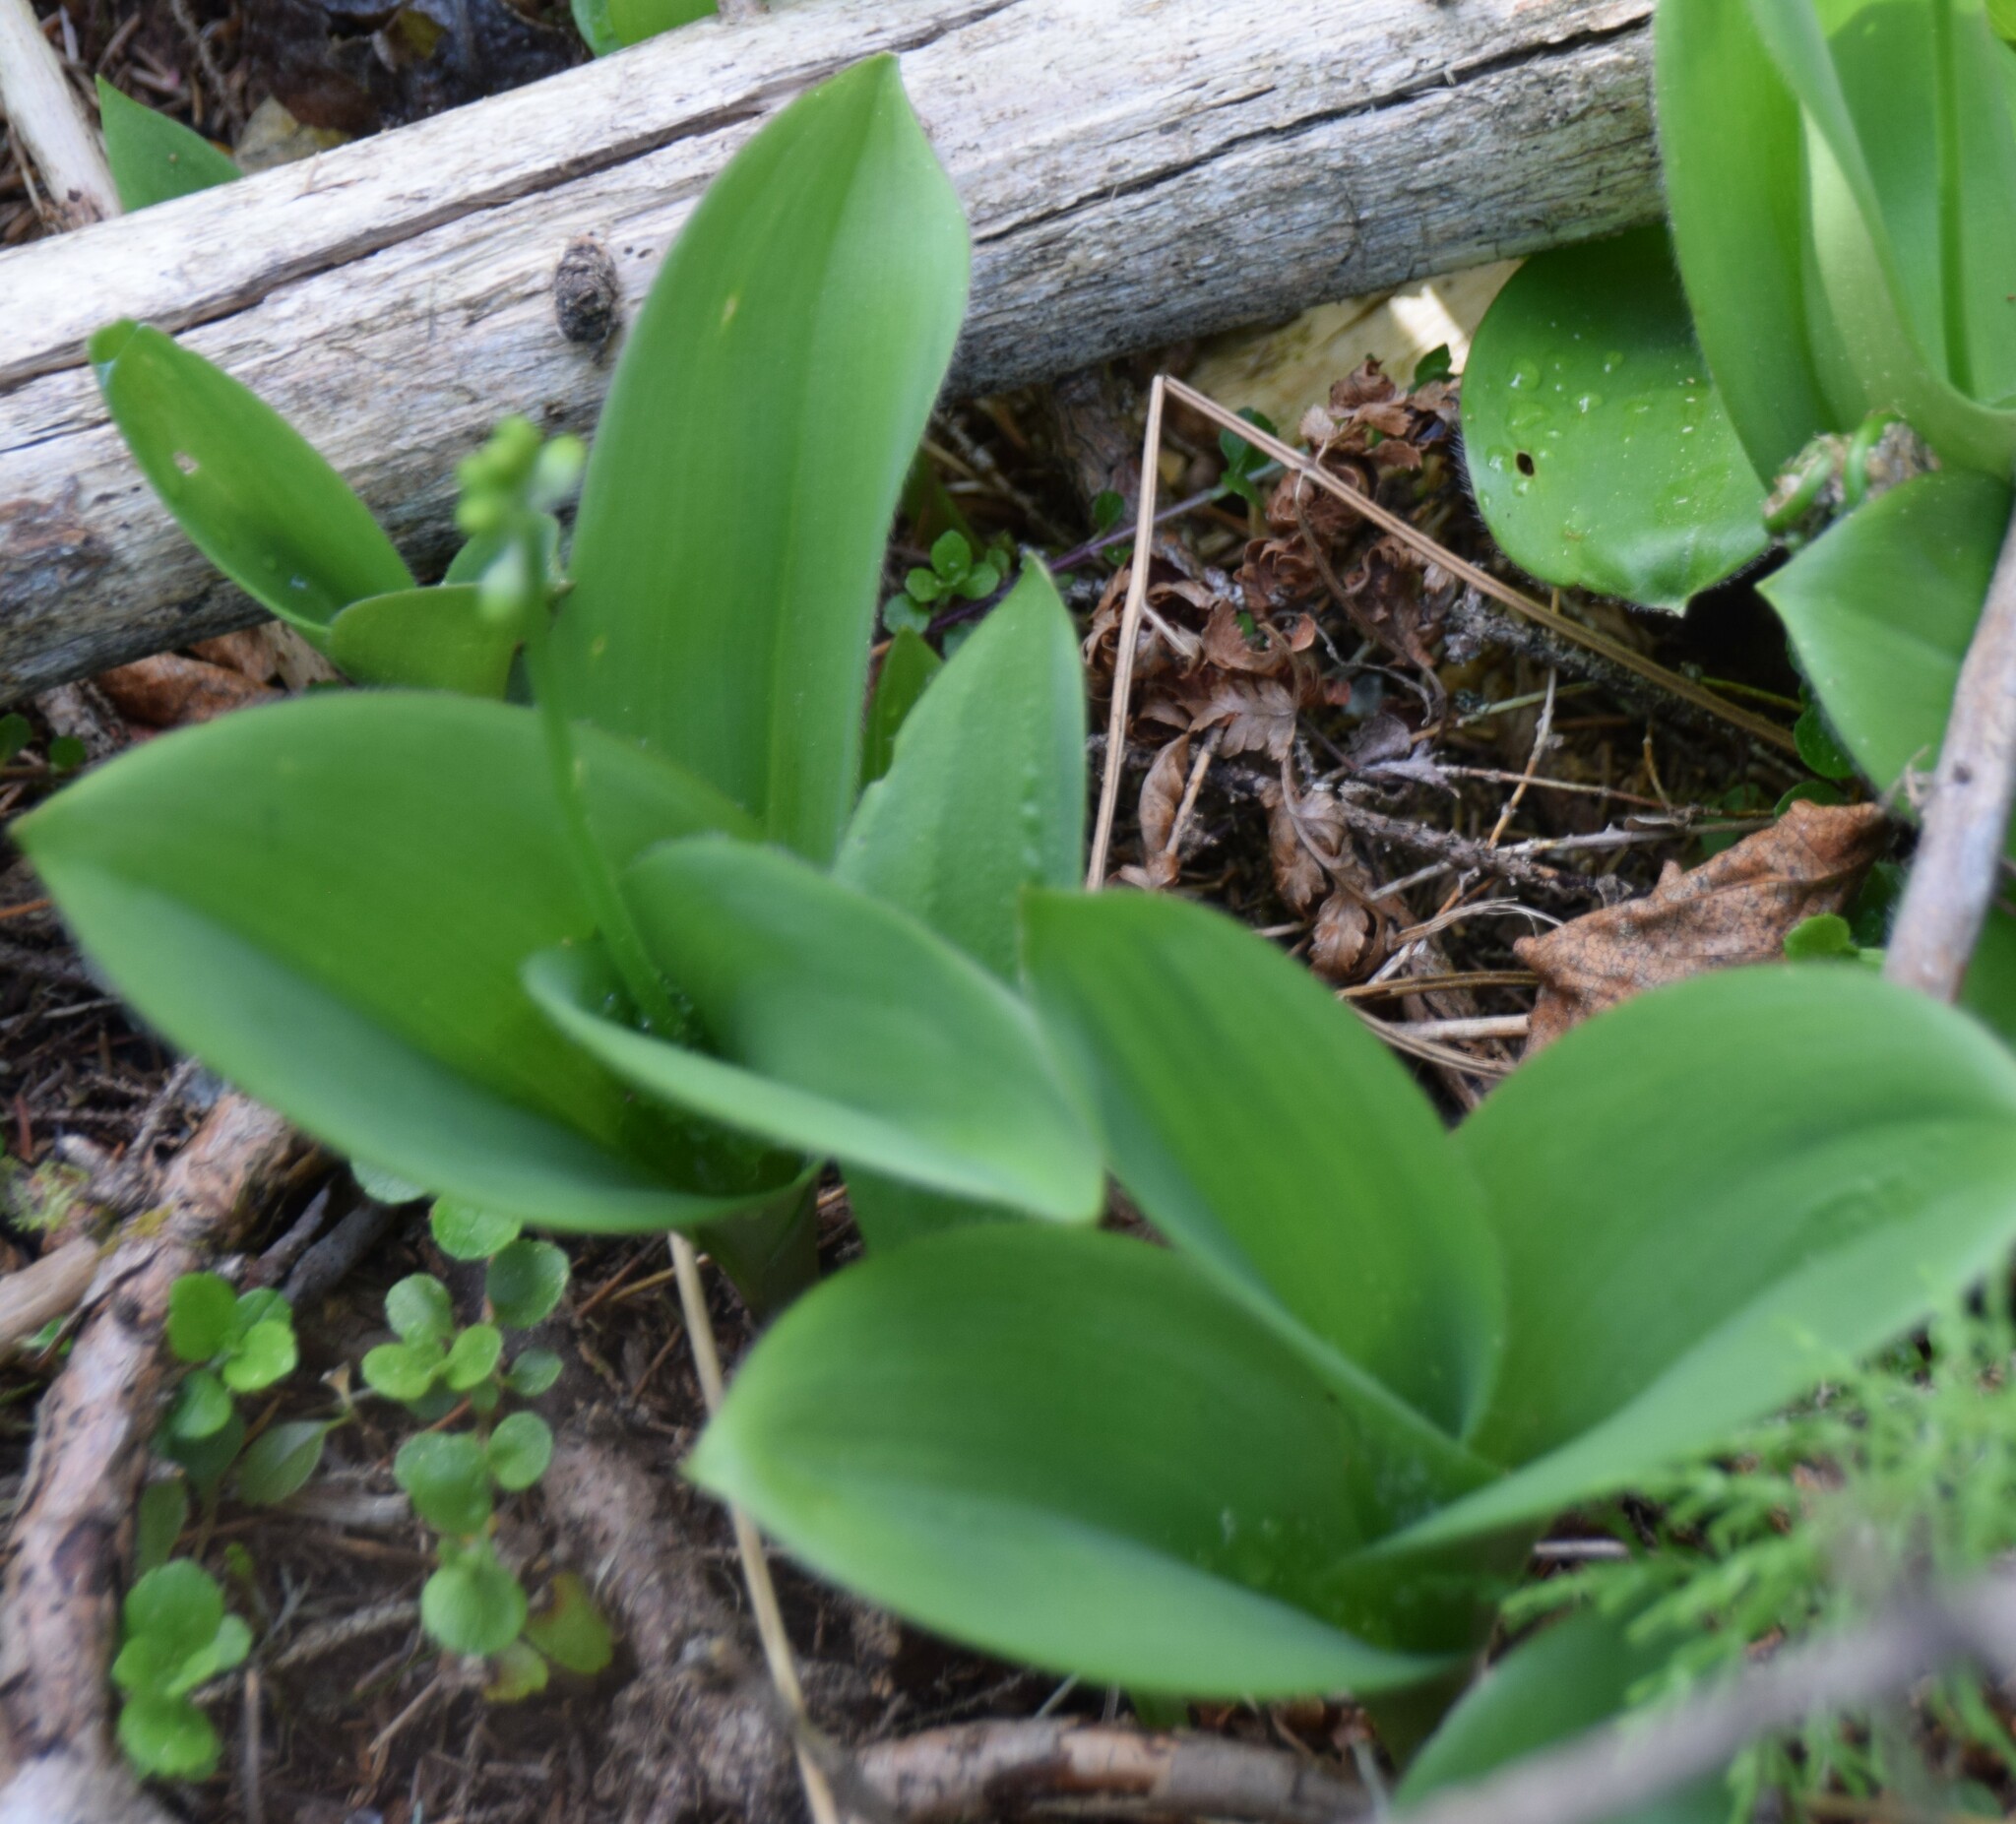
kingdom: Plantae
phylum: Tracheophyta
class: Liliopsida
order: Liliales
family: Liliaceae
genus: Clintonia
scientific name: Clintonia borealis
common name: Yellow clintonia
